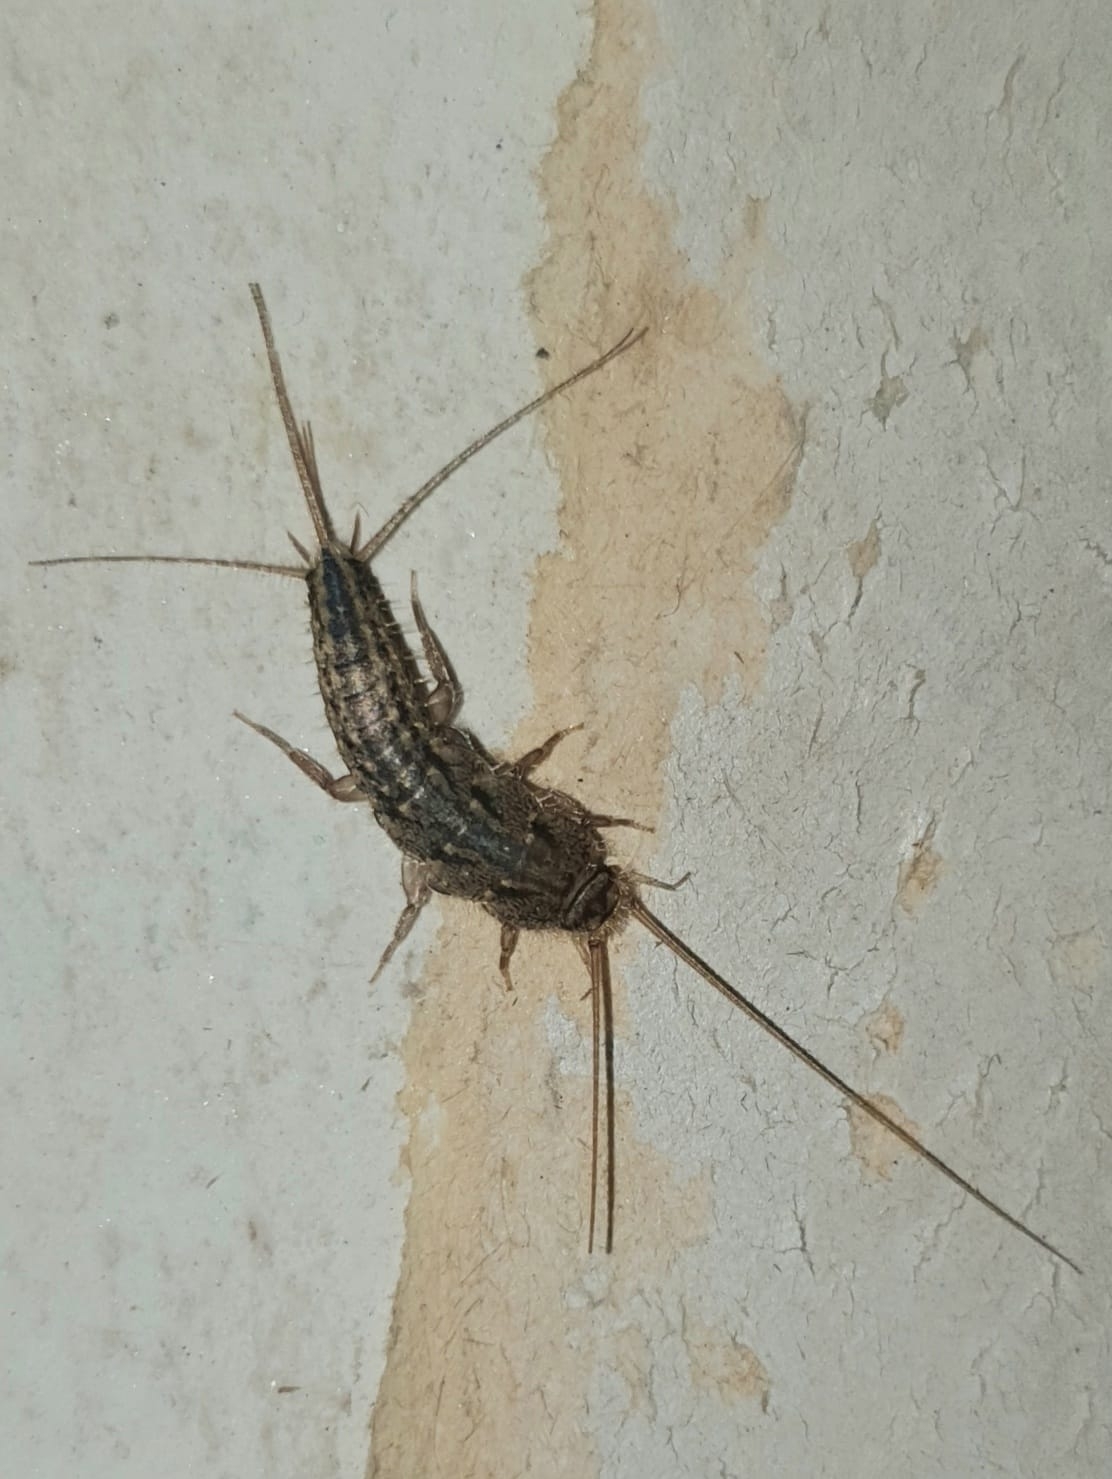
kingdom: Animalia
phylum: Arthropoda
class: Insecta
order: Zygentoma
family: Lepismatidae
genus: Ctenolepisma
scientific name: Ctenolepisma lineata
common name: Four-lined silverfish
